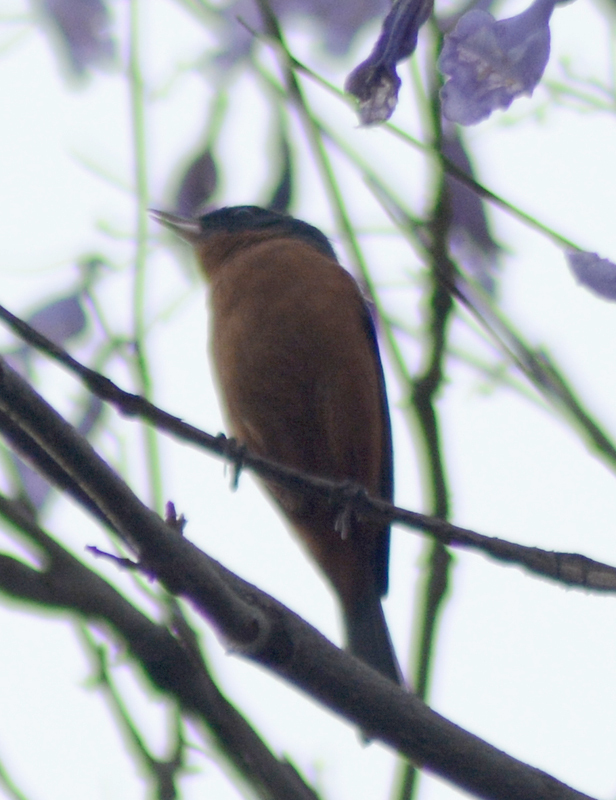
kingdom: Animalia
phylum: Chordata
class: Aves
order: Passeriformes
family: Thraupidae
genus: Diglossa
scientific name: Diglossa baritula
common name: Cinnamon-bellied flowerpiercer
